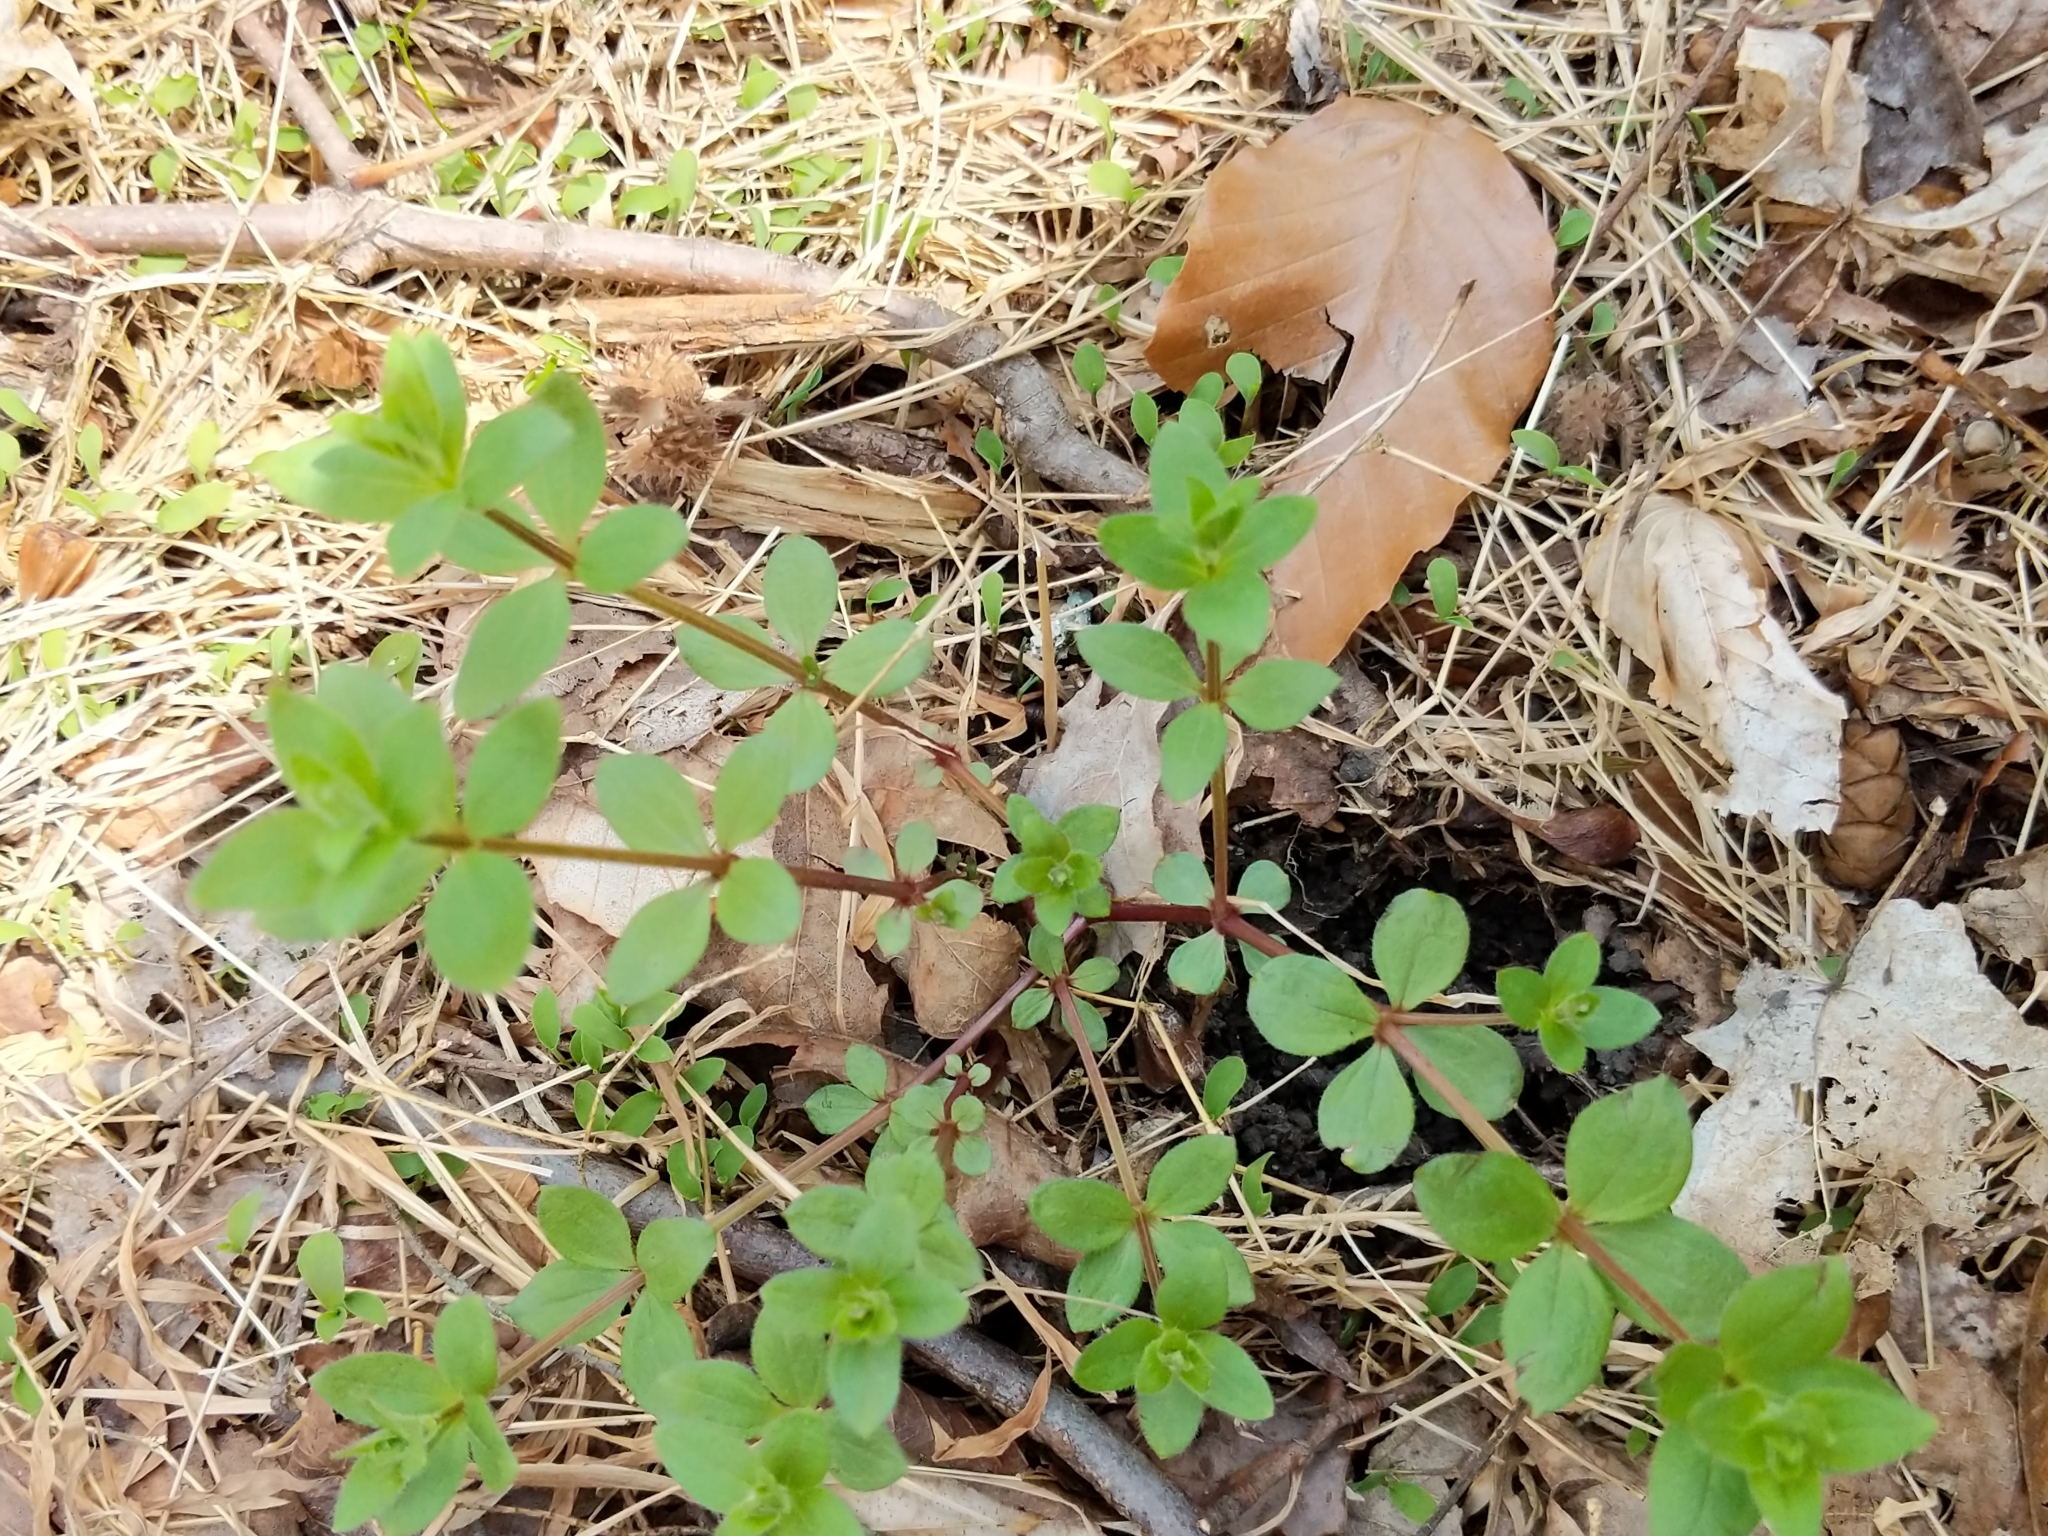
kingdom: Plantae
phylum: Tracheophyta
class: Magnoliopsida
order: Gentianales
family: Rubiaceae
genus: Galium
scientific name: Galium circaezans
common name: Forest bedstraw
